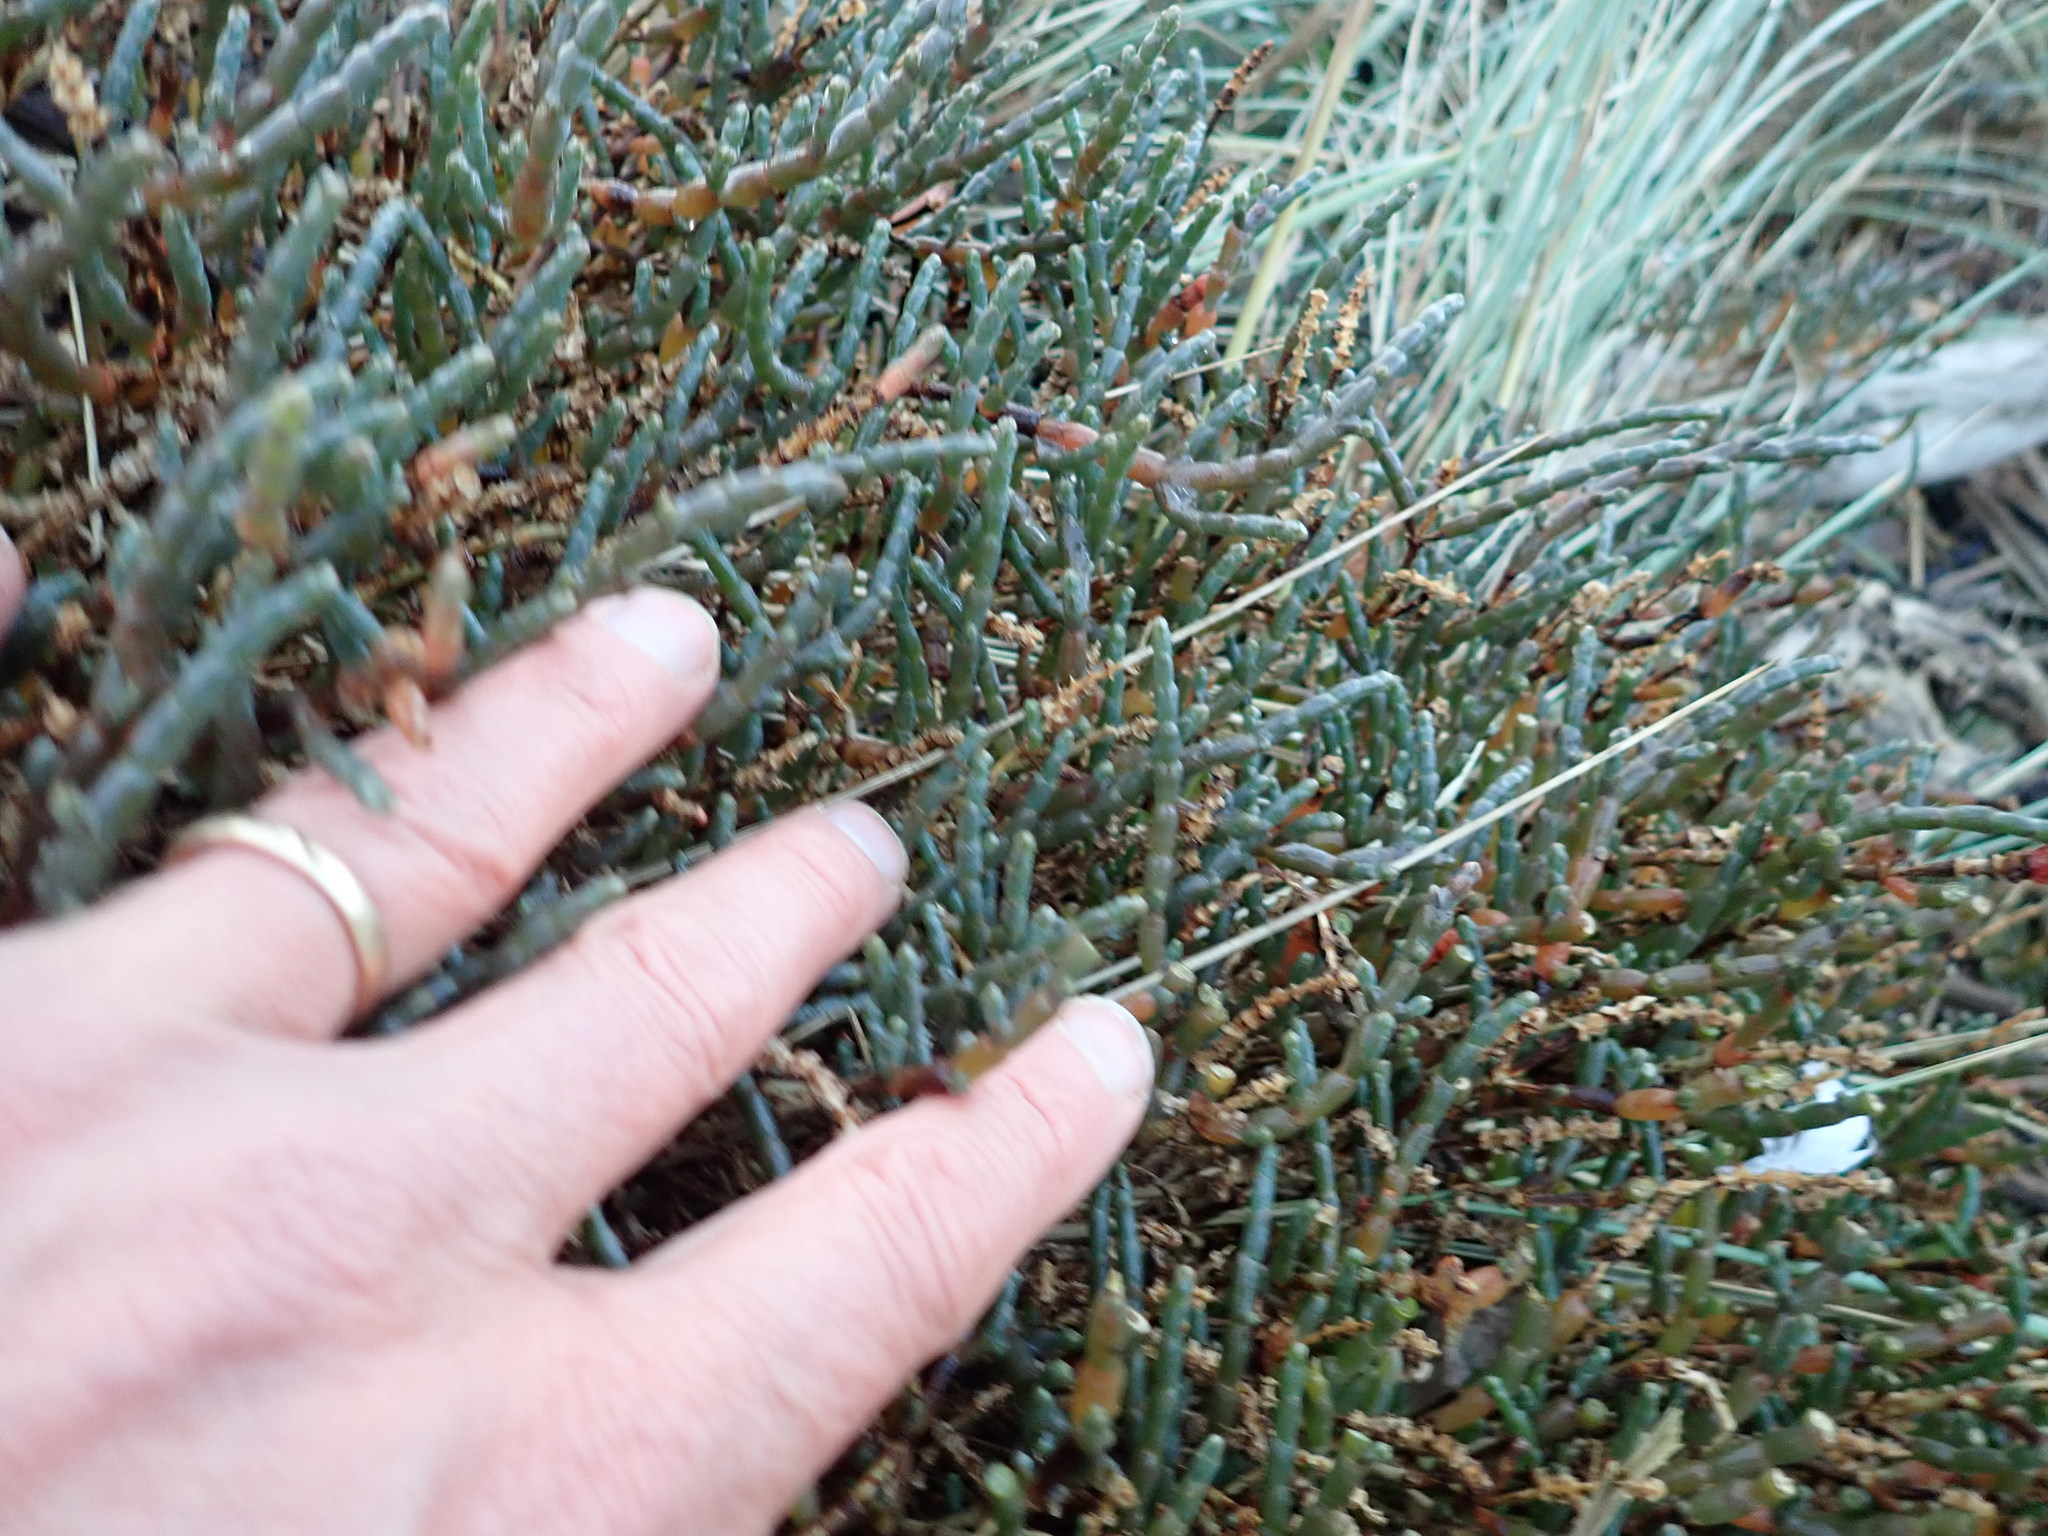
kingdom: Plantae
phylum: Tracheophyta
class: Magnoliopsida
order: Caryophyllales
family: Amaranthaceae
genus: Salicornia
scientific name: Salicornia quinqueflora
